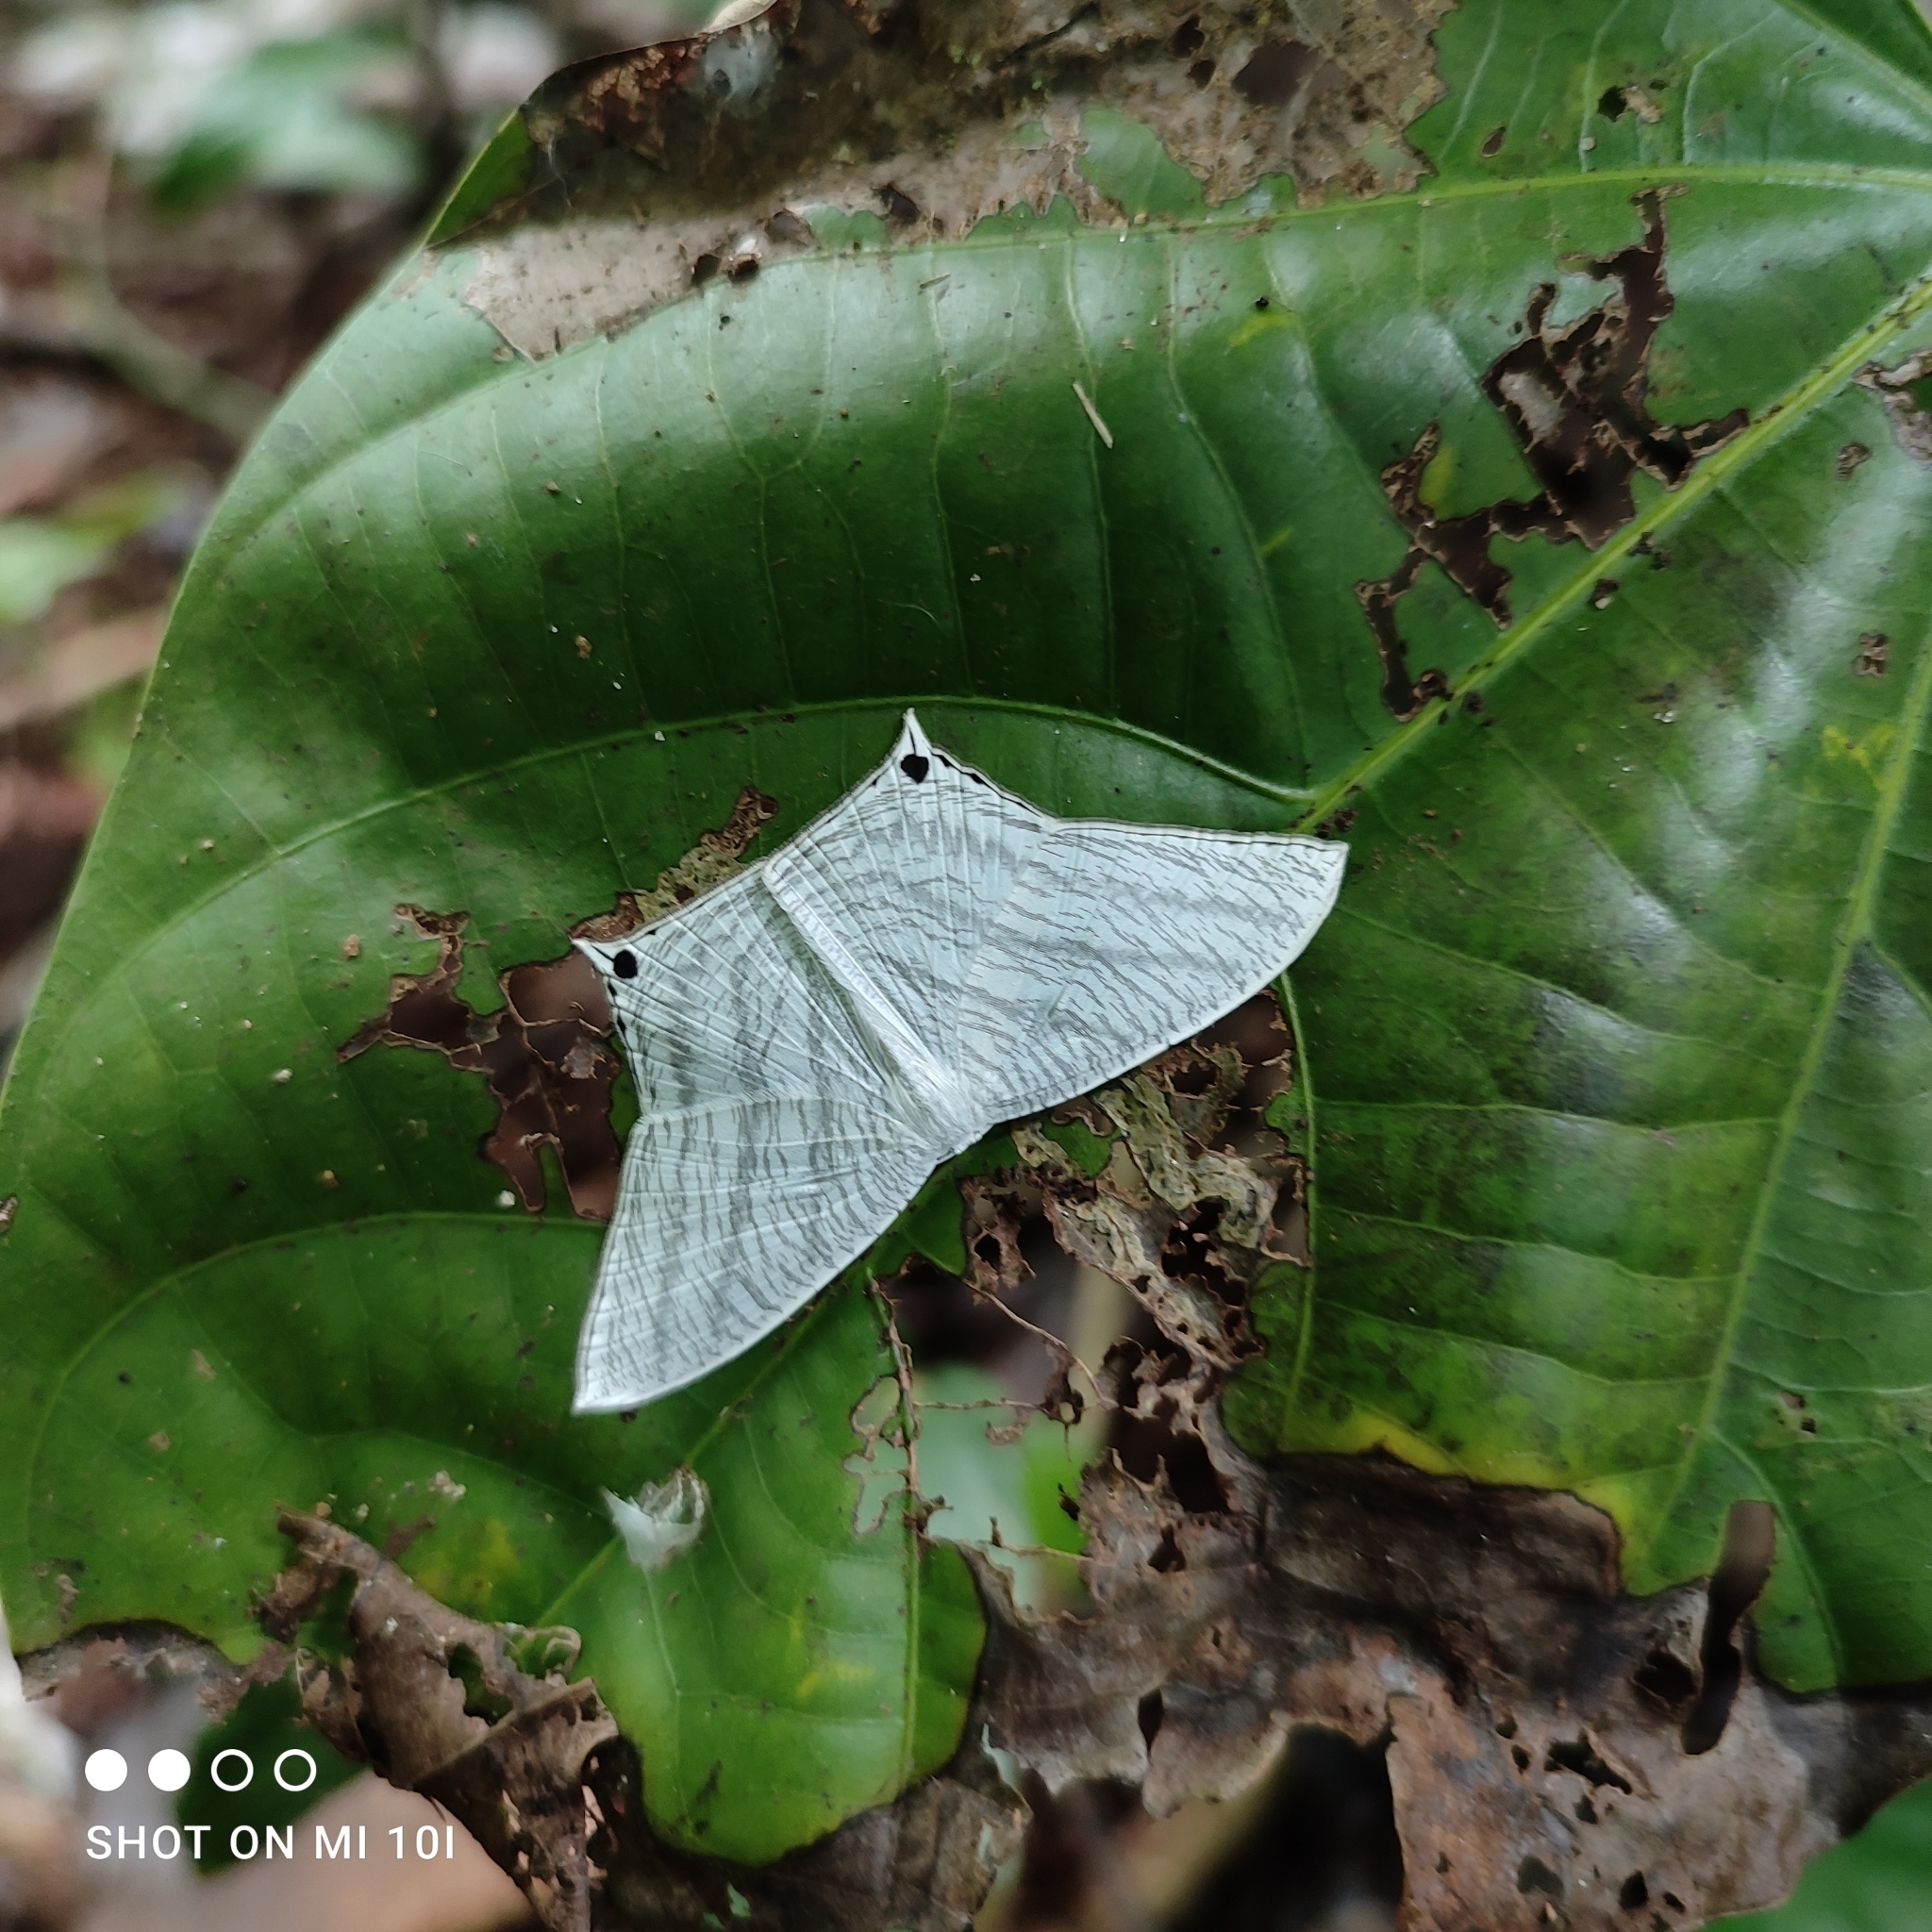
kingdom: Animalia
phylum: Arthropoda
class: Insecta
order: Lepidoptera
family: Uraniidae
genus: Micronia
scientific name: Micronia aculeata
